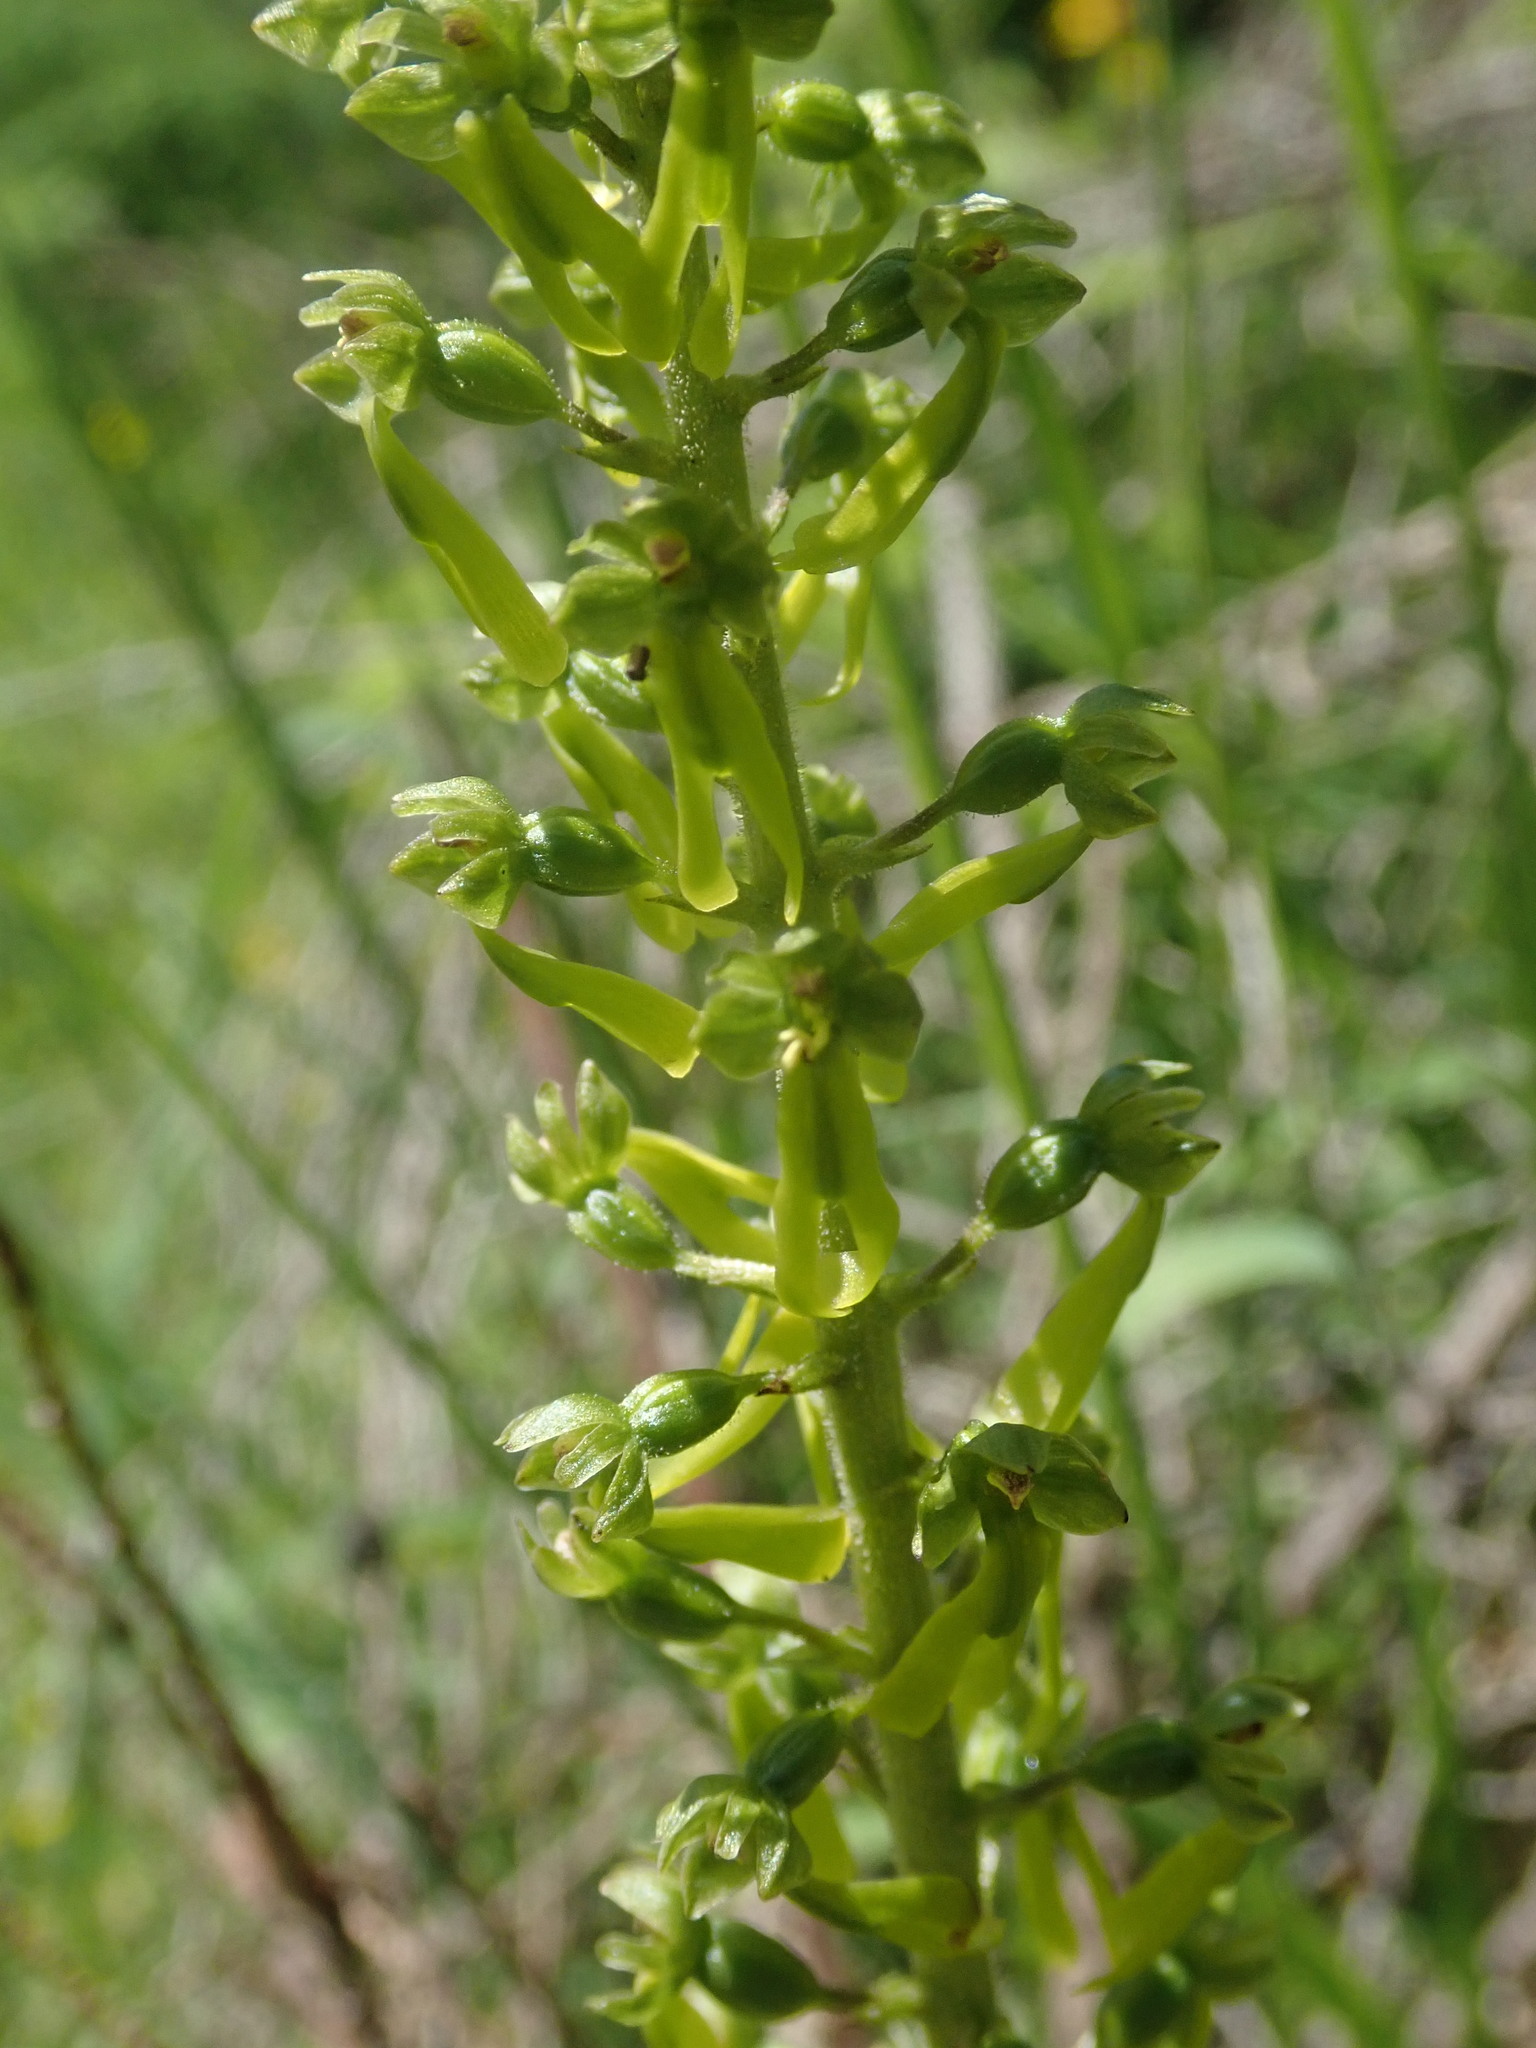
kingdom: Plantae
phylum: Tracheophyta
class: Liliopsida
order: Asparagales
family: Orchidaceae
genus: Neottia
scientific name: Neottia ovata
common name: Common twayblade
